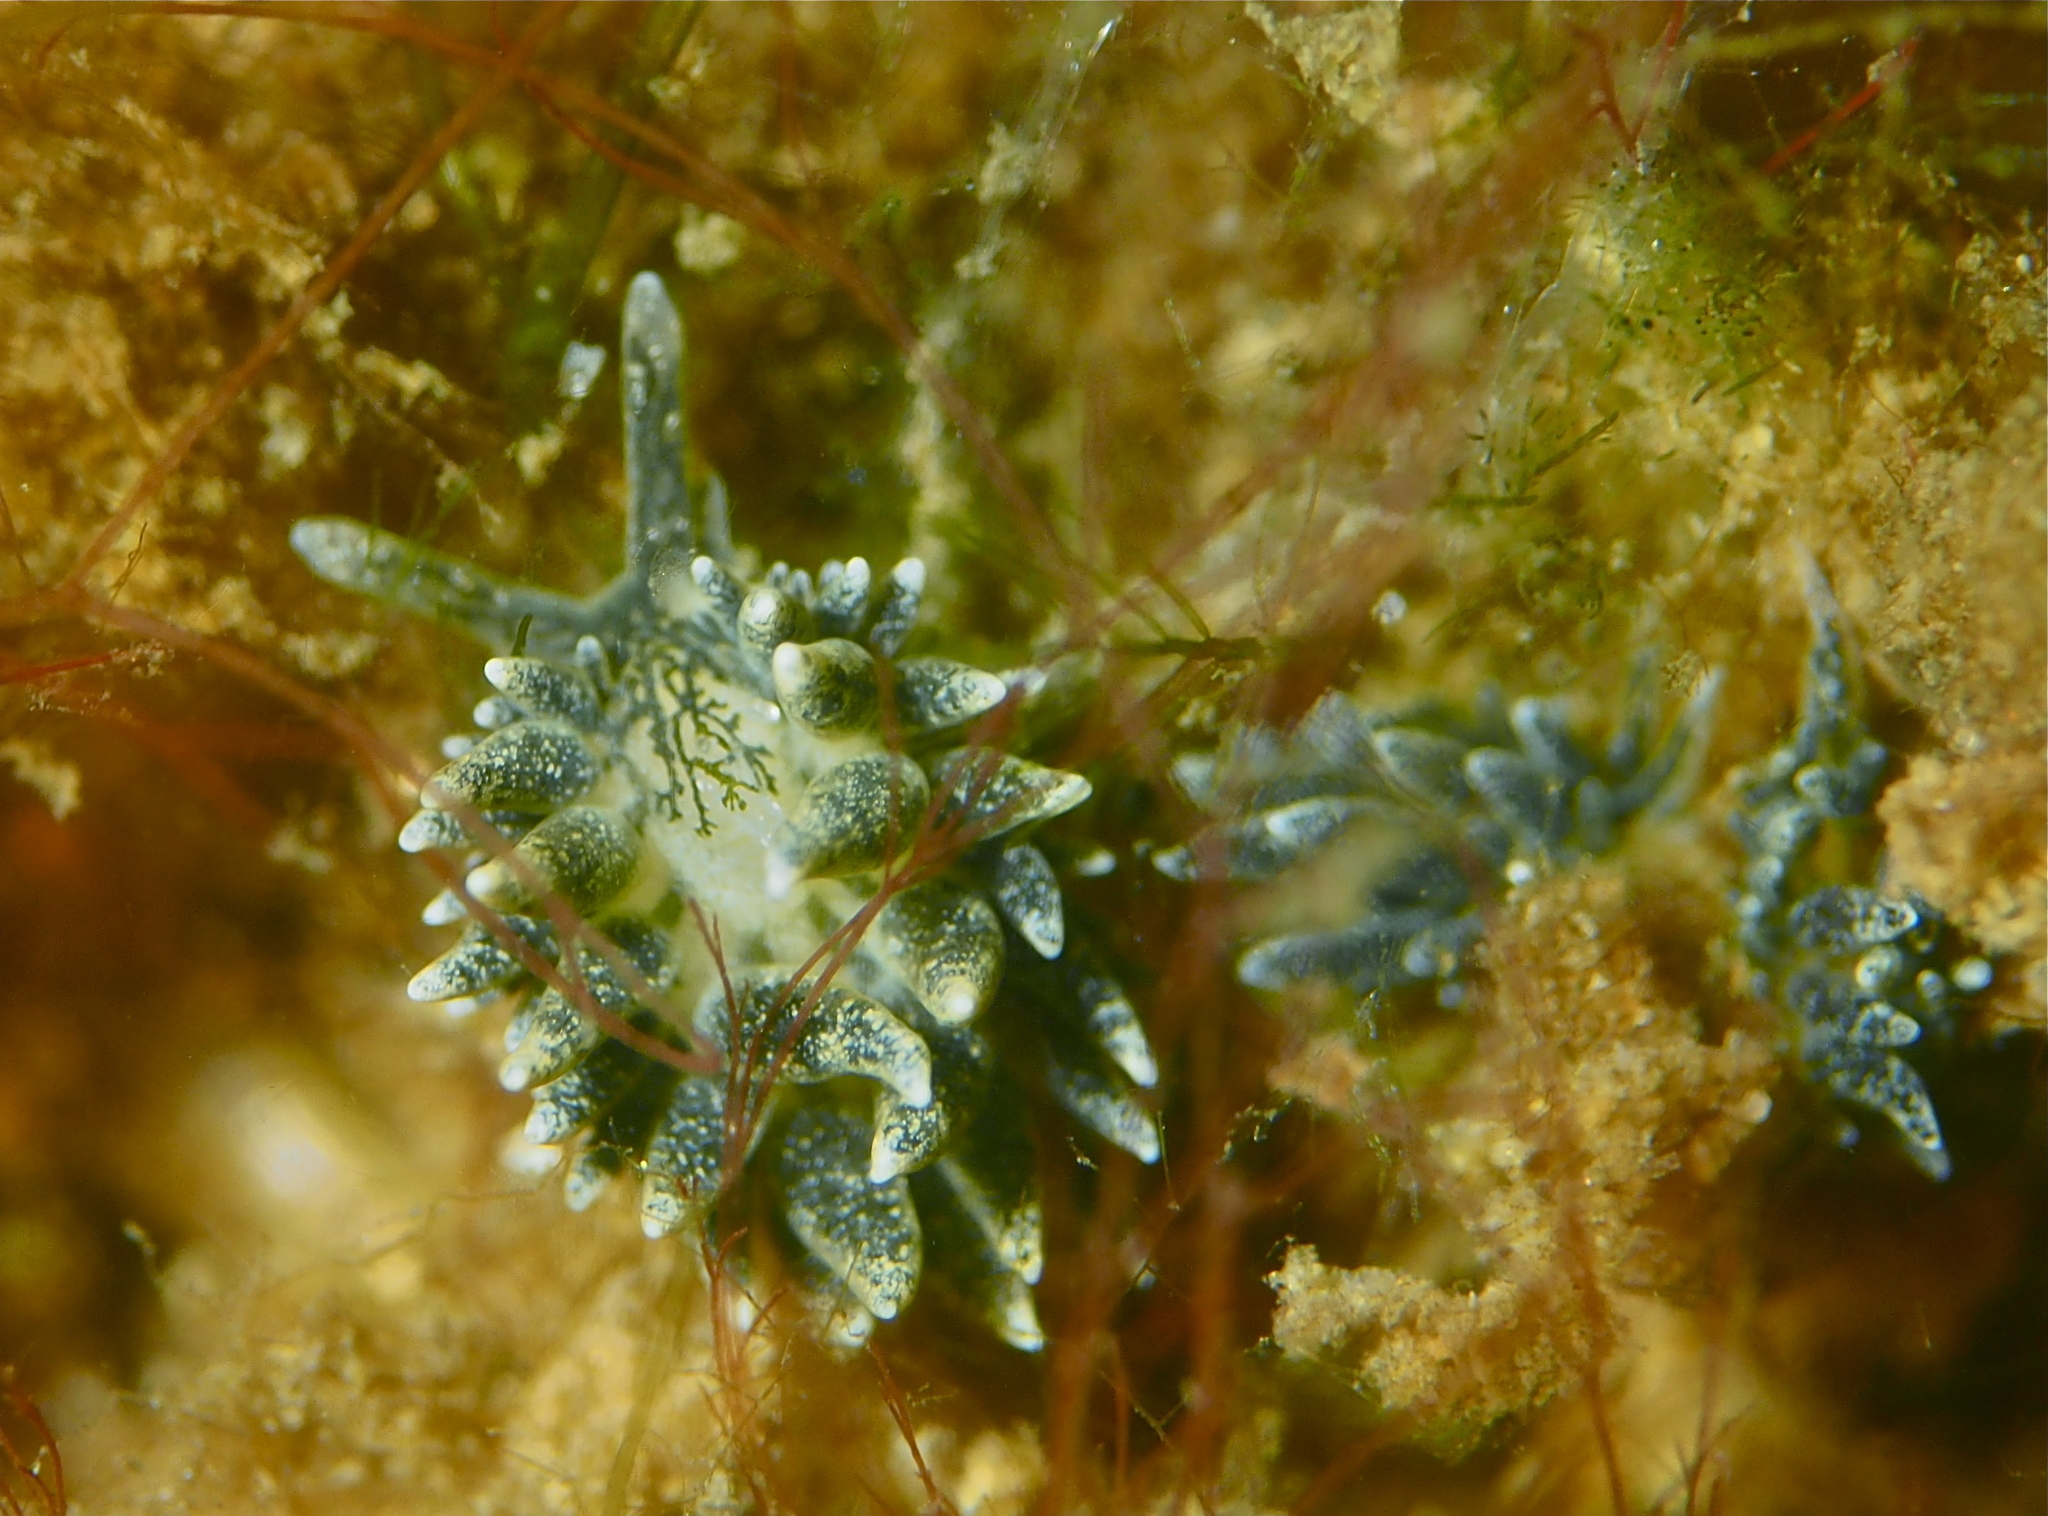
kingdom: Animalia
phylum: Mollusca
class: Gastropoda
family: Limapontiidae
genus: Placida
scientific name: Placida dendritica
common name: Dendritic nudibranch
